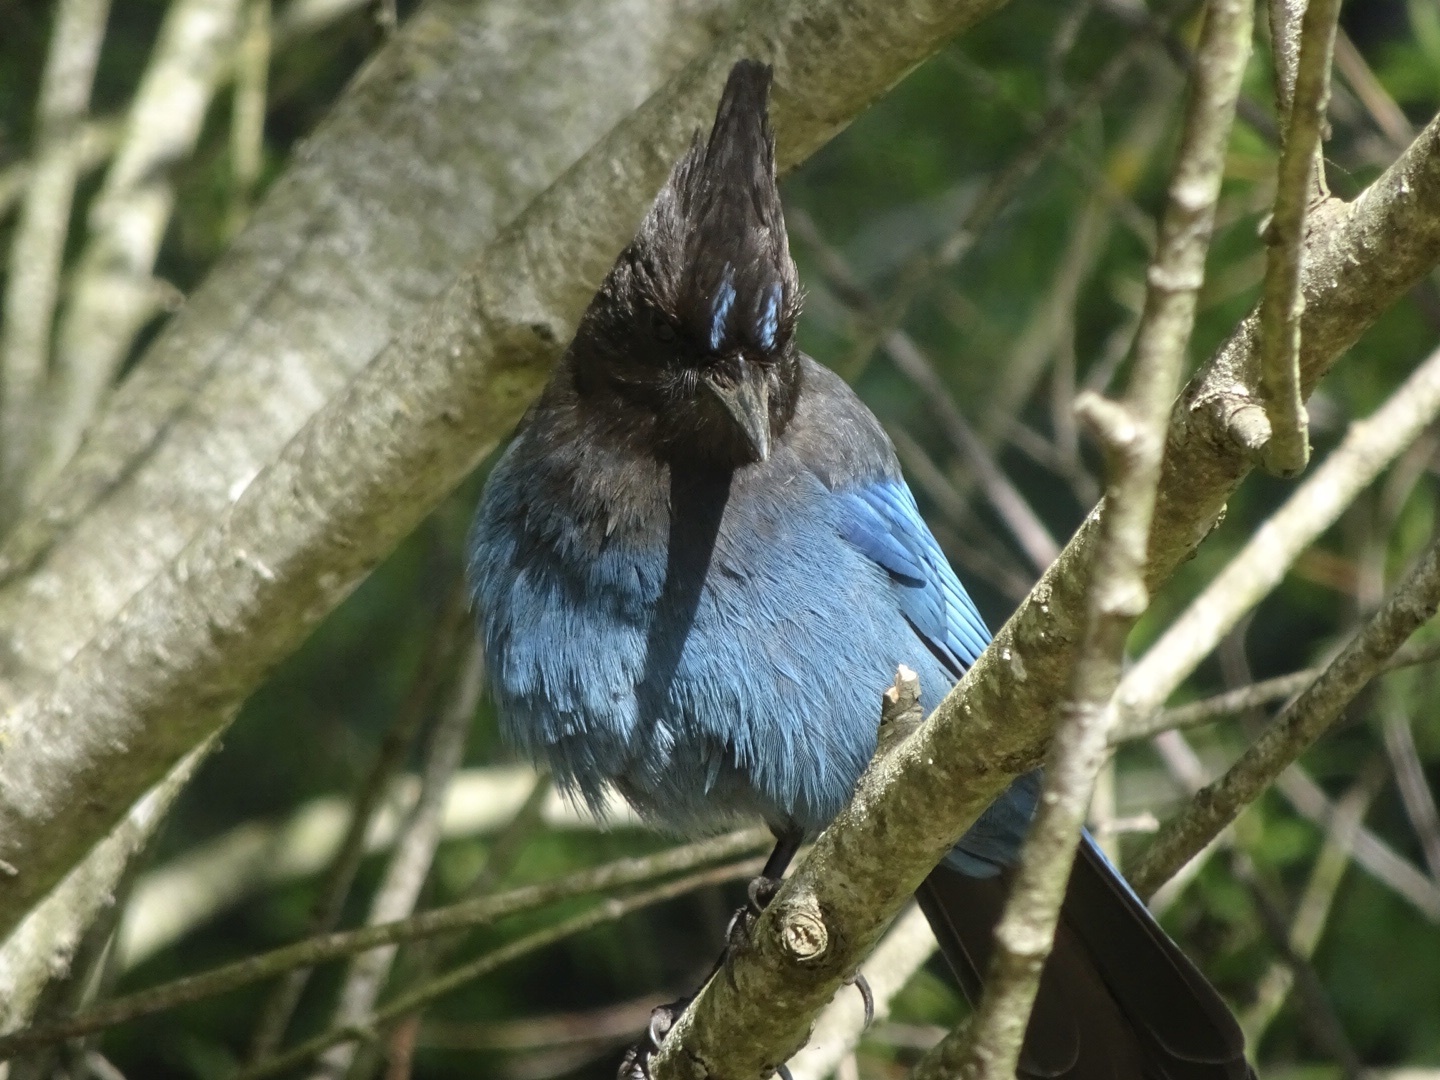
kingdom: Animalia
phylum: Chordata
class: Aves
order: Passeriformes
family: Corvidae
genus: Cyanocitta
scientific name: Cyanocitta stelleri
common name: Steller's jay
